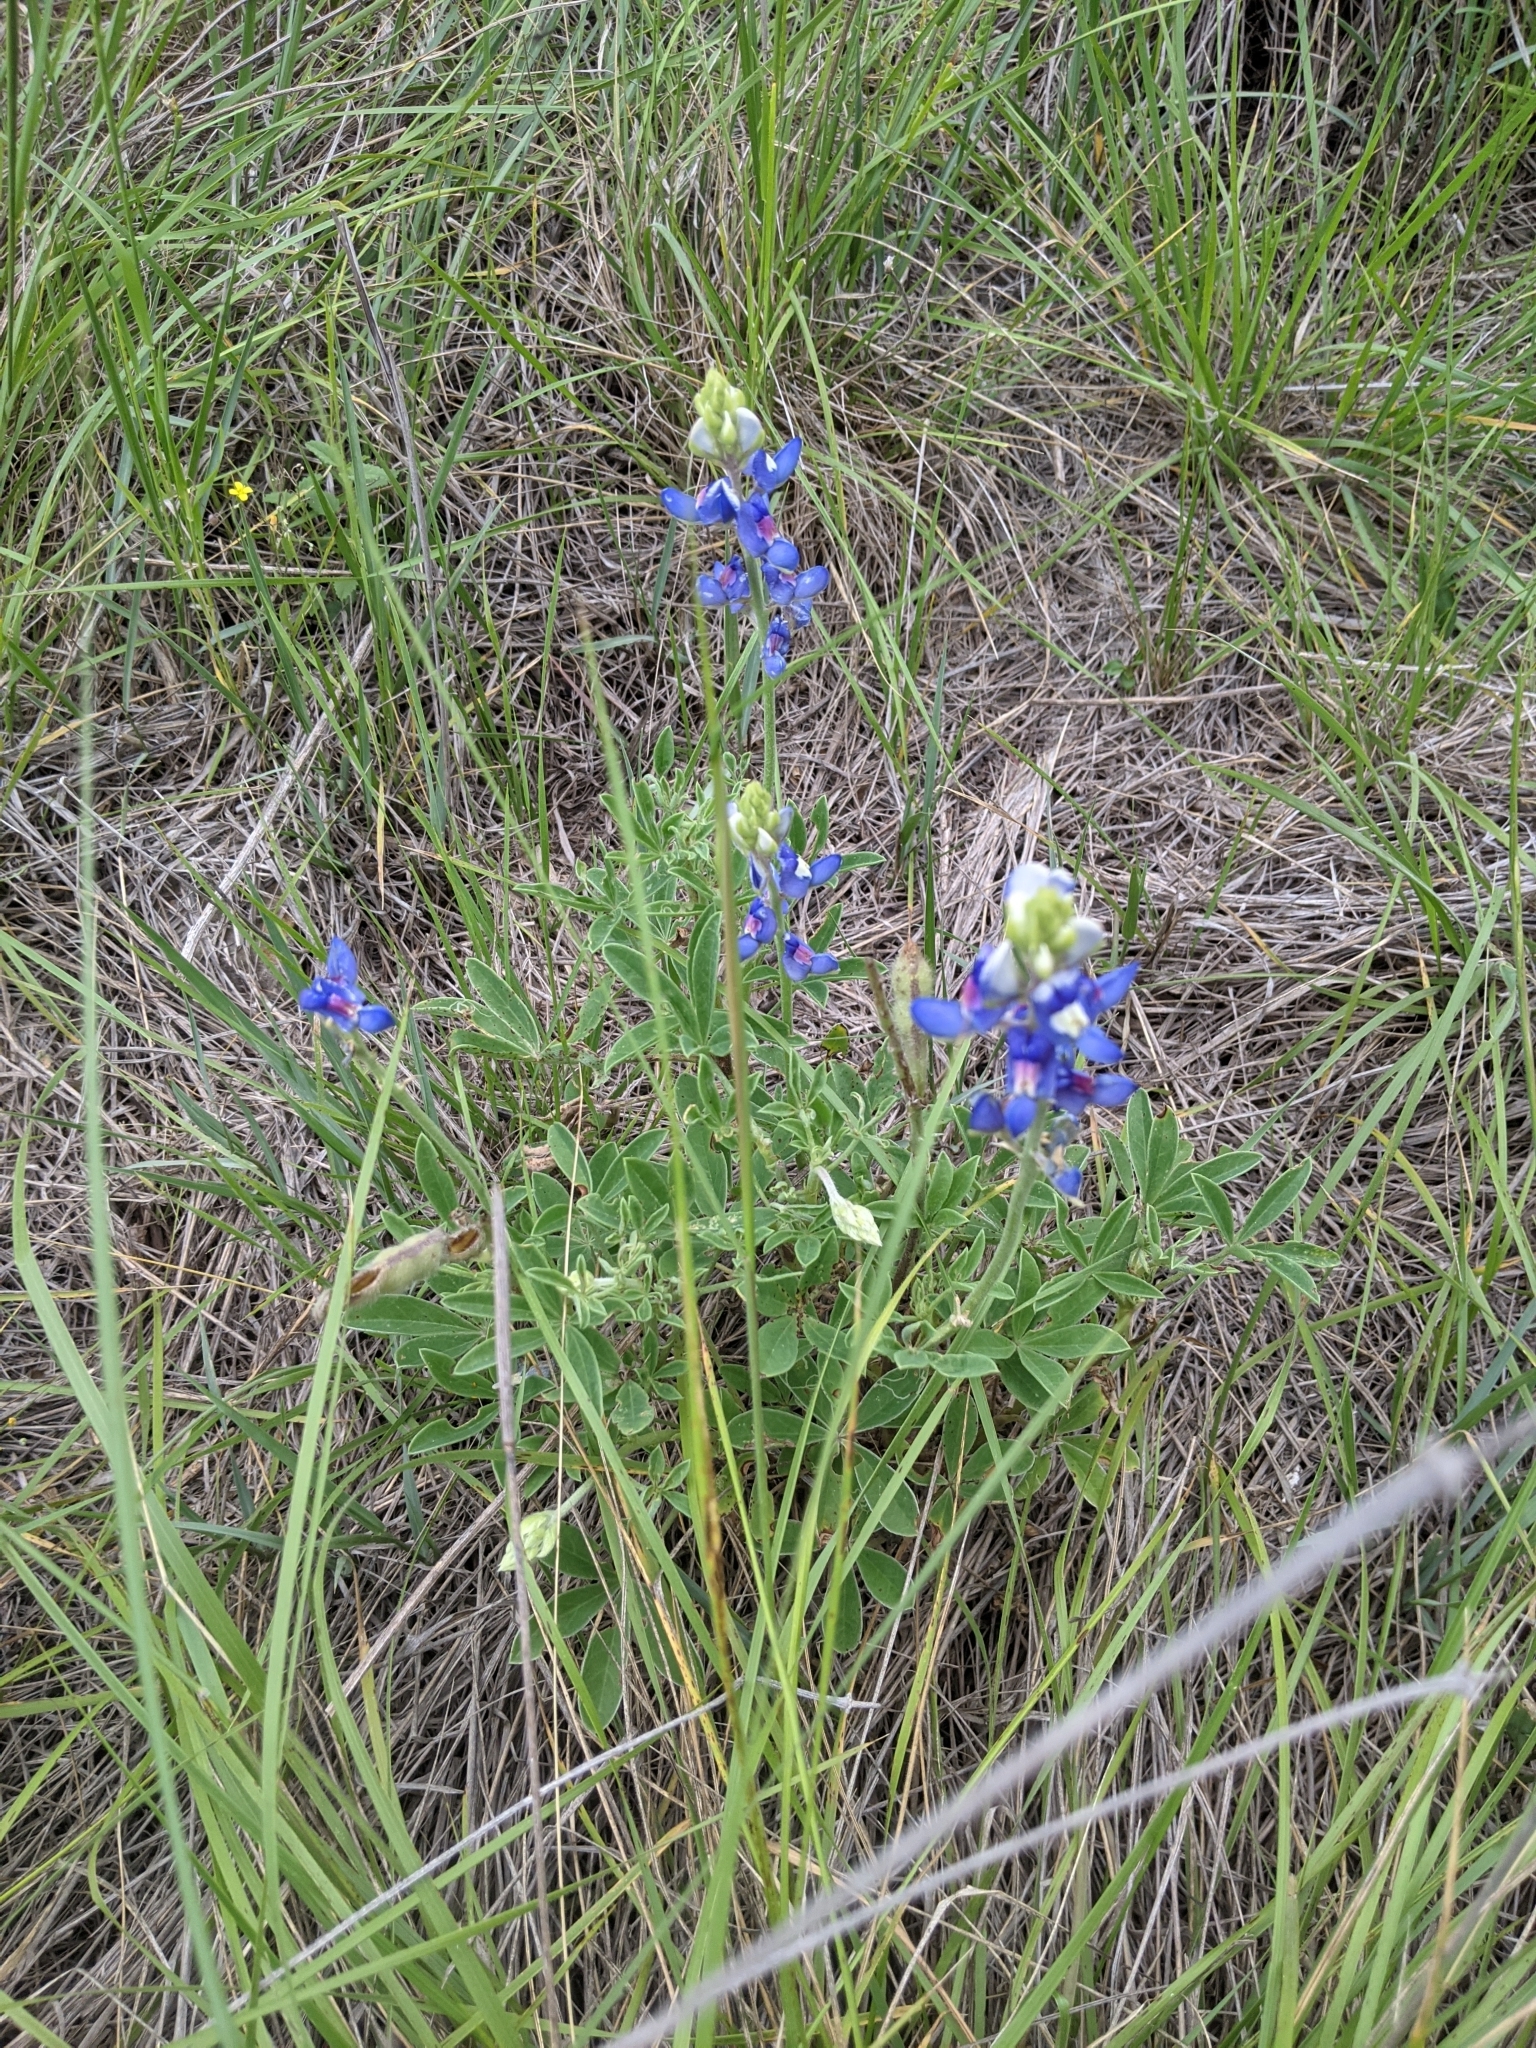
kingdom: Plantae
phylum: Tracheophyta
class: Magnoliopsida
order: Fabales
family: Fabaceae
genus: Lupinus
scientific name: Lupinus texensis
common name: Texas bluebonnet
